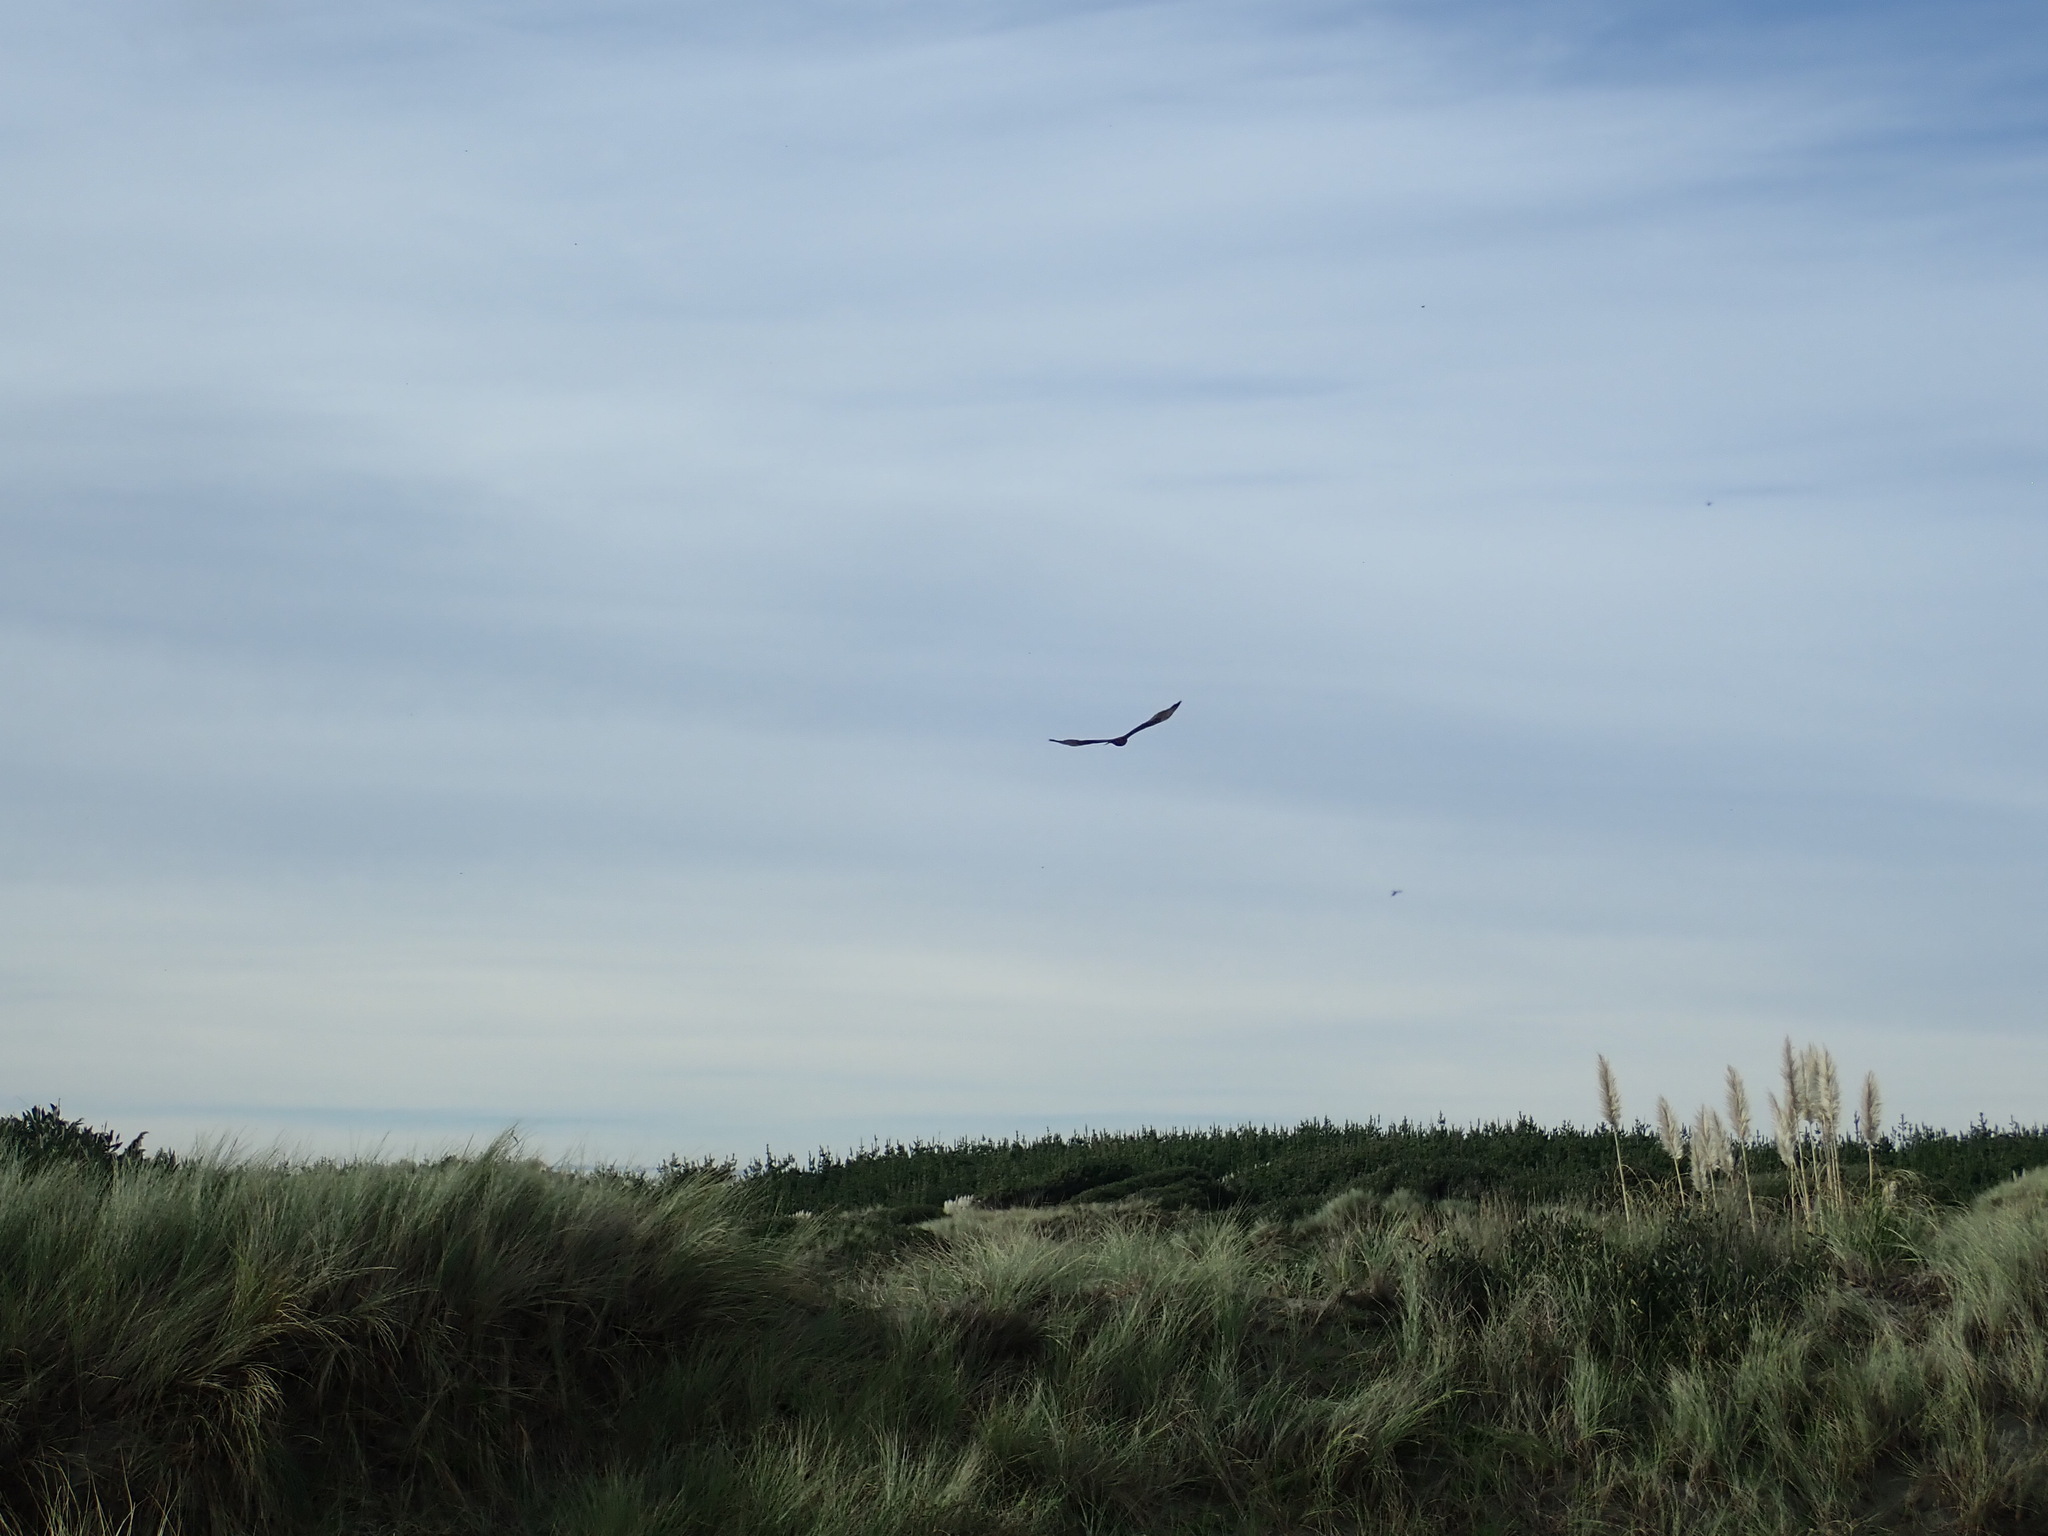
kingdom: Animalia
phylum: Chordata
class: Aves
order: Accipitriformes
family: Accipitridae
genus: Circus
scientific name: Circus approximans
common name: Swamp harrier
